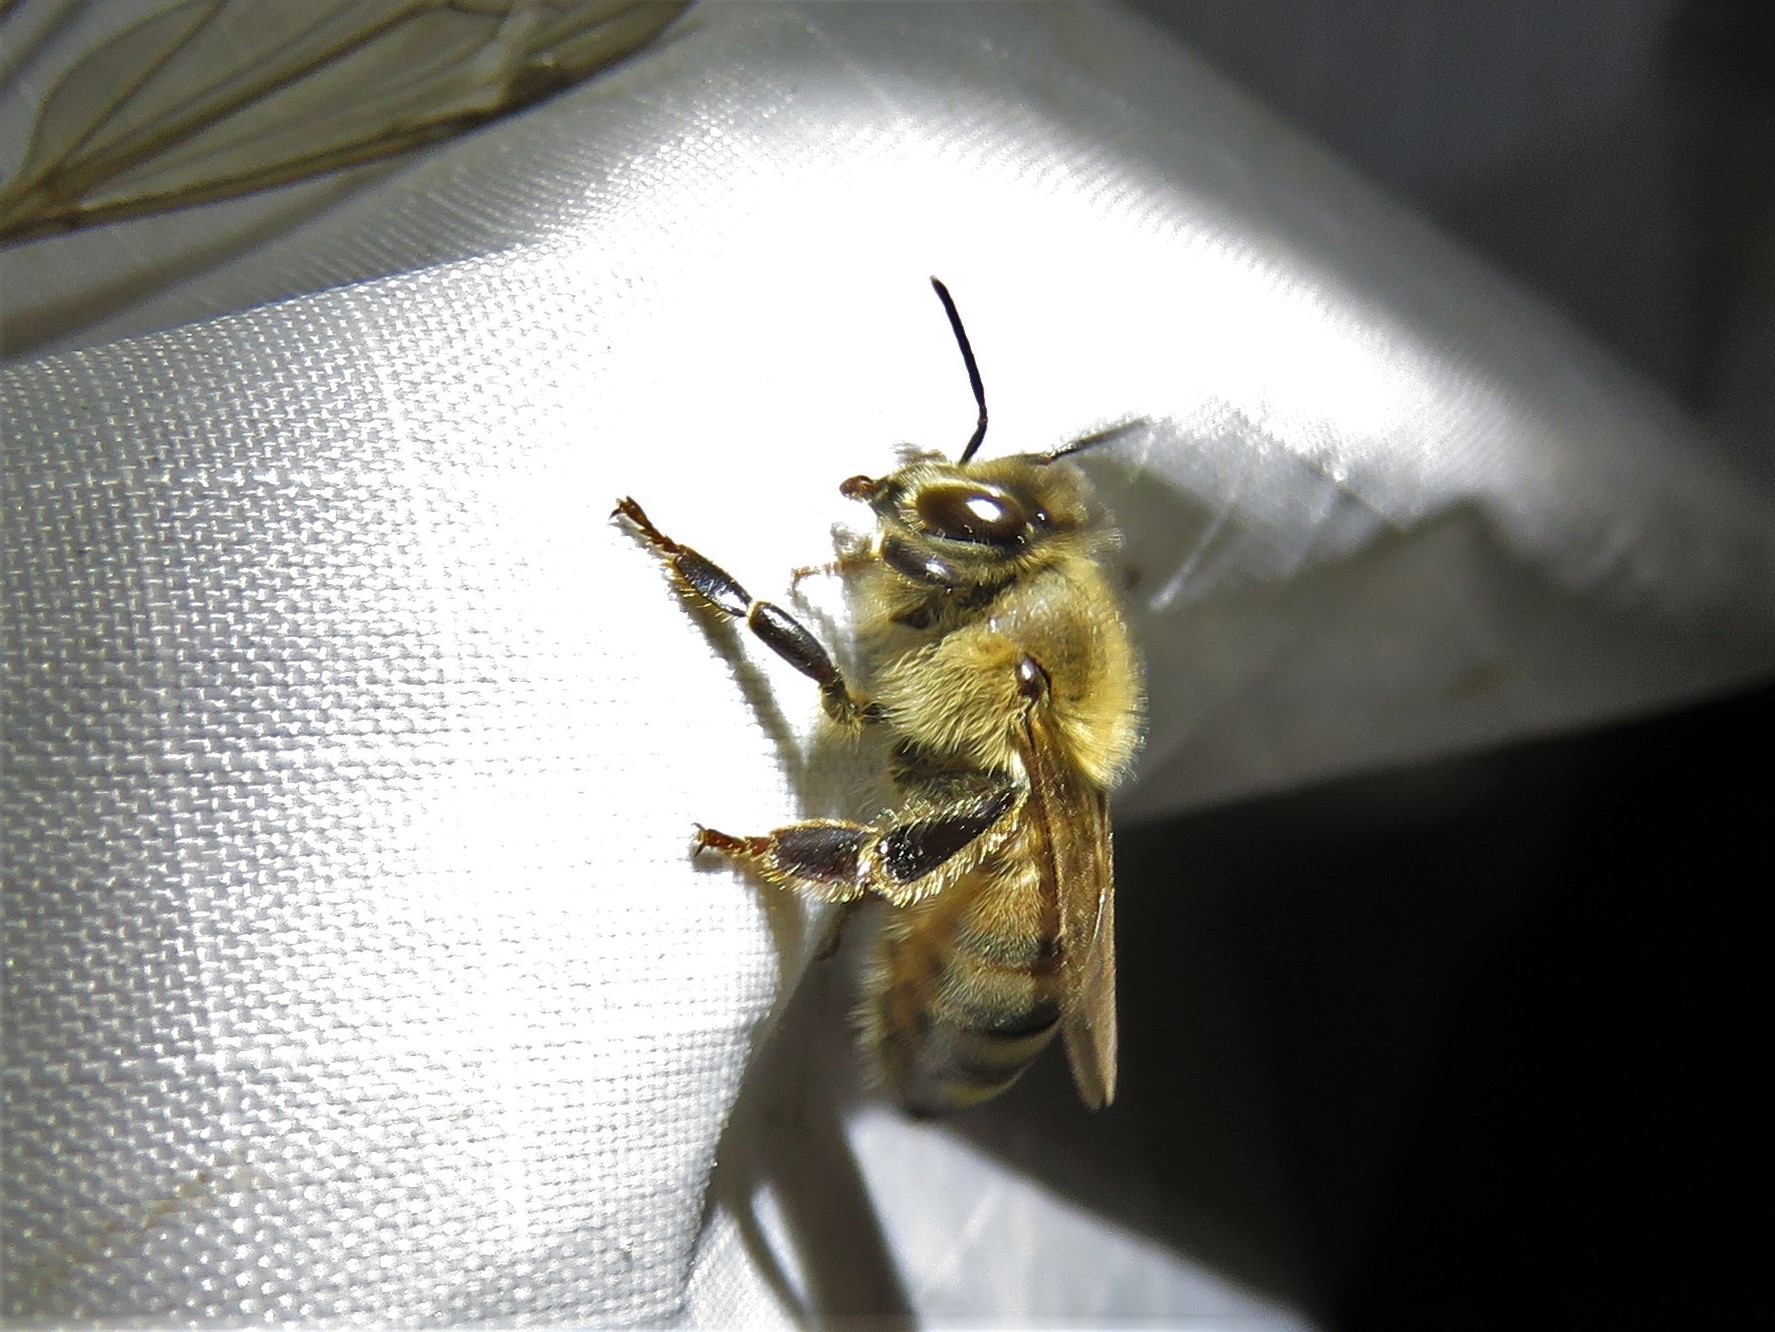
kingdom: Animalia
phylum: Arthropoda
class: Insecta
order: Hymenoptera
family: Apidae
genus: Apis
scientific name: Apis mellifera
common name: Honey bee
